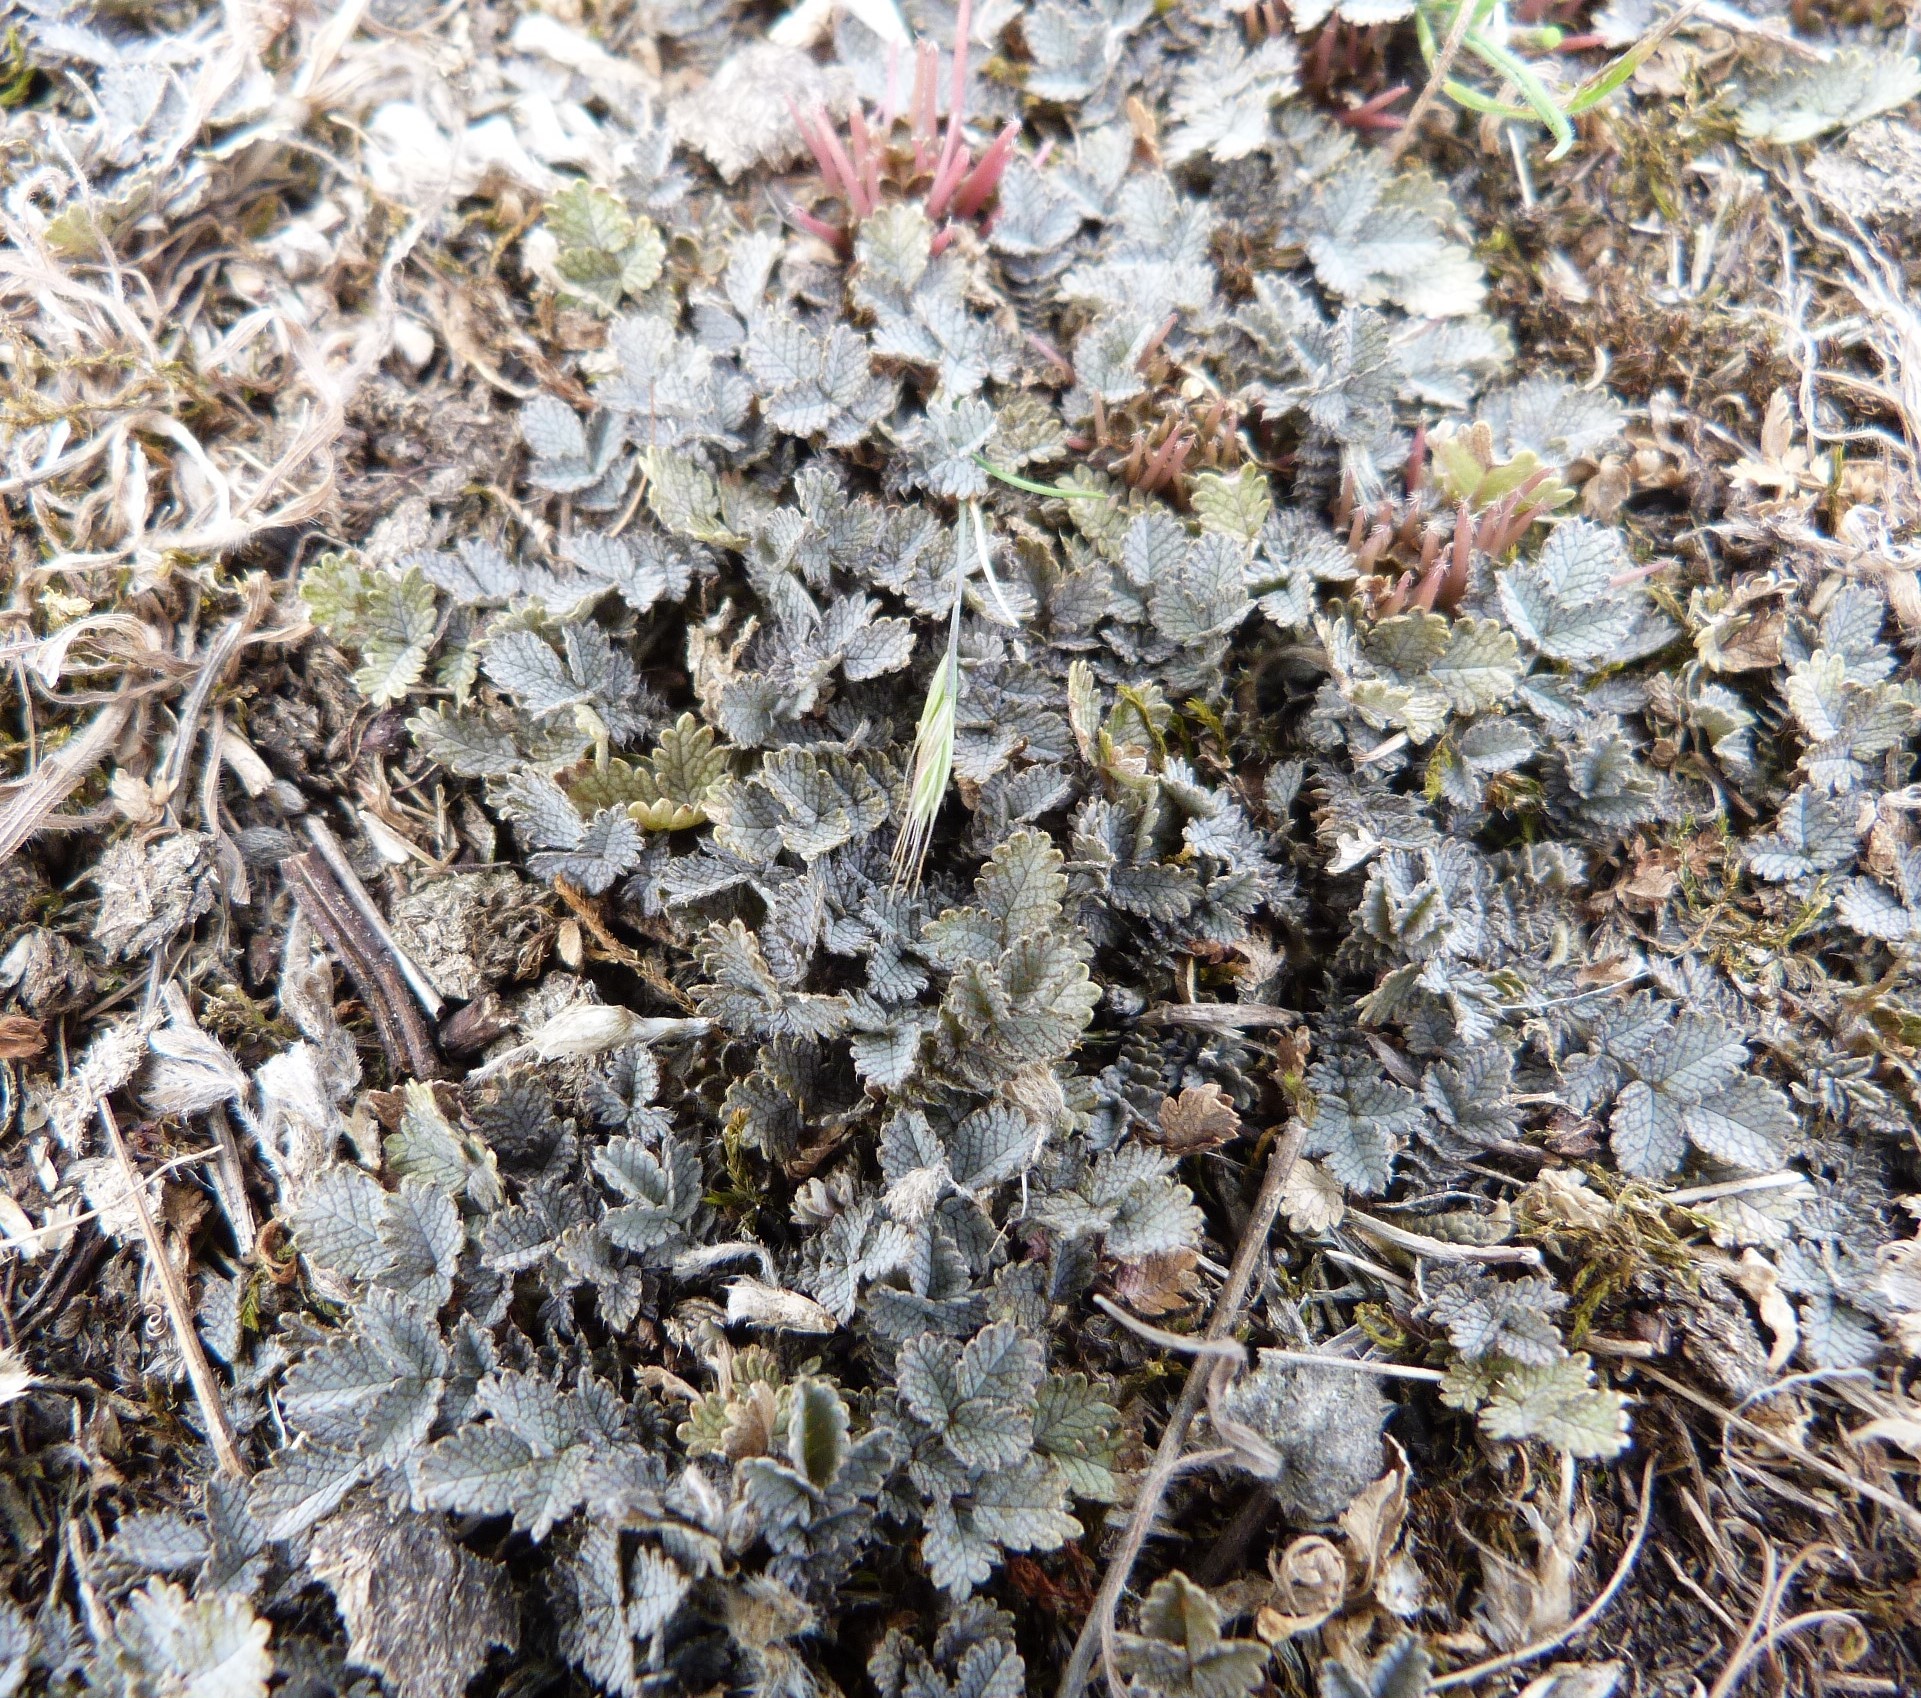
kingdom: Plantae
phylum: Tracheophyta
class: Magnoliopsida
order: Rosales
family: Rosaceae
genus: Acaena
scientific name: Acaena buchananii
